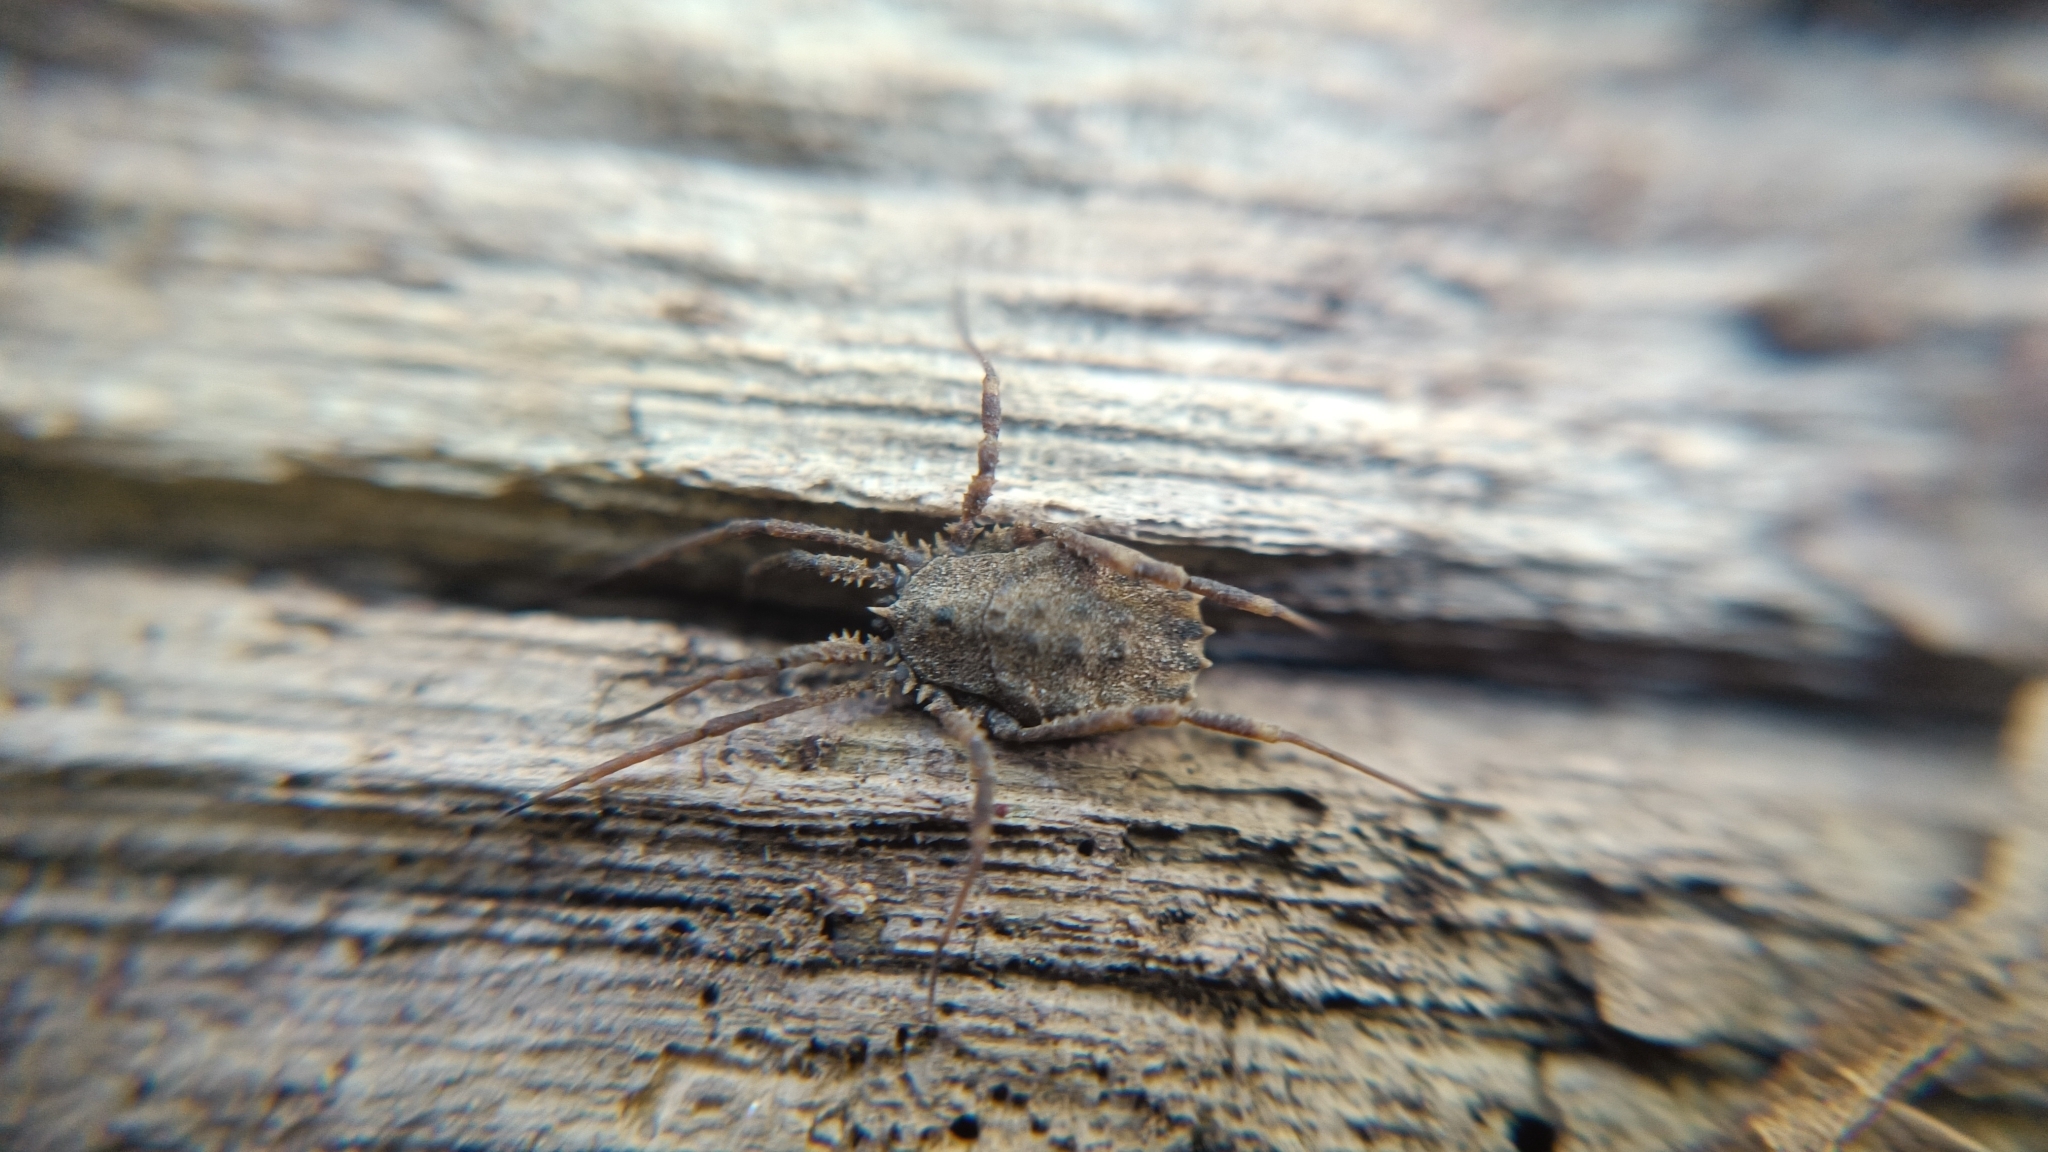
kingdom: Animalia
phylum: Arthropoda
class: Arachnida
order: Opiliones
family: Sclerosomatidae
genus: Homalenotus
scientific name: Homalenotus quadridentatus
